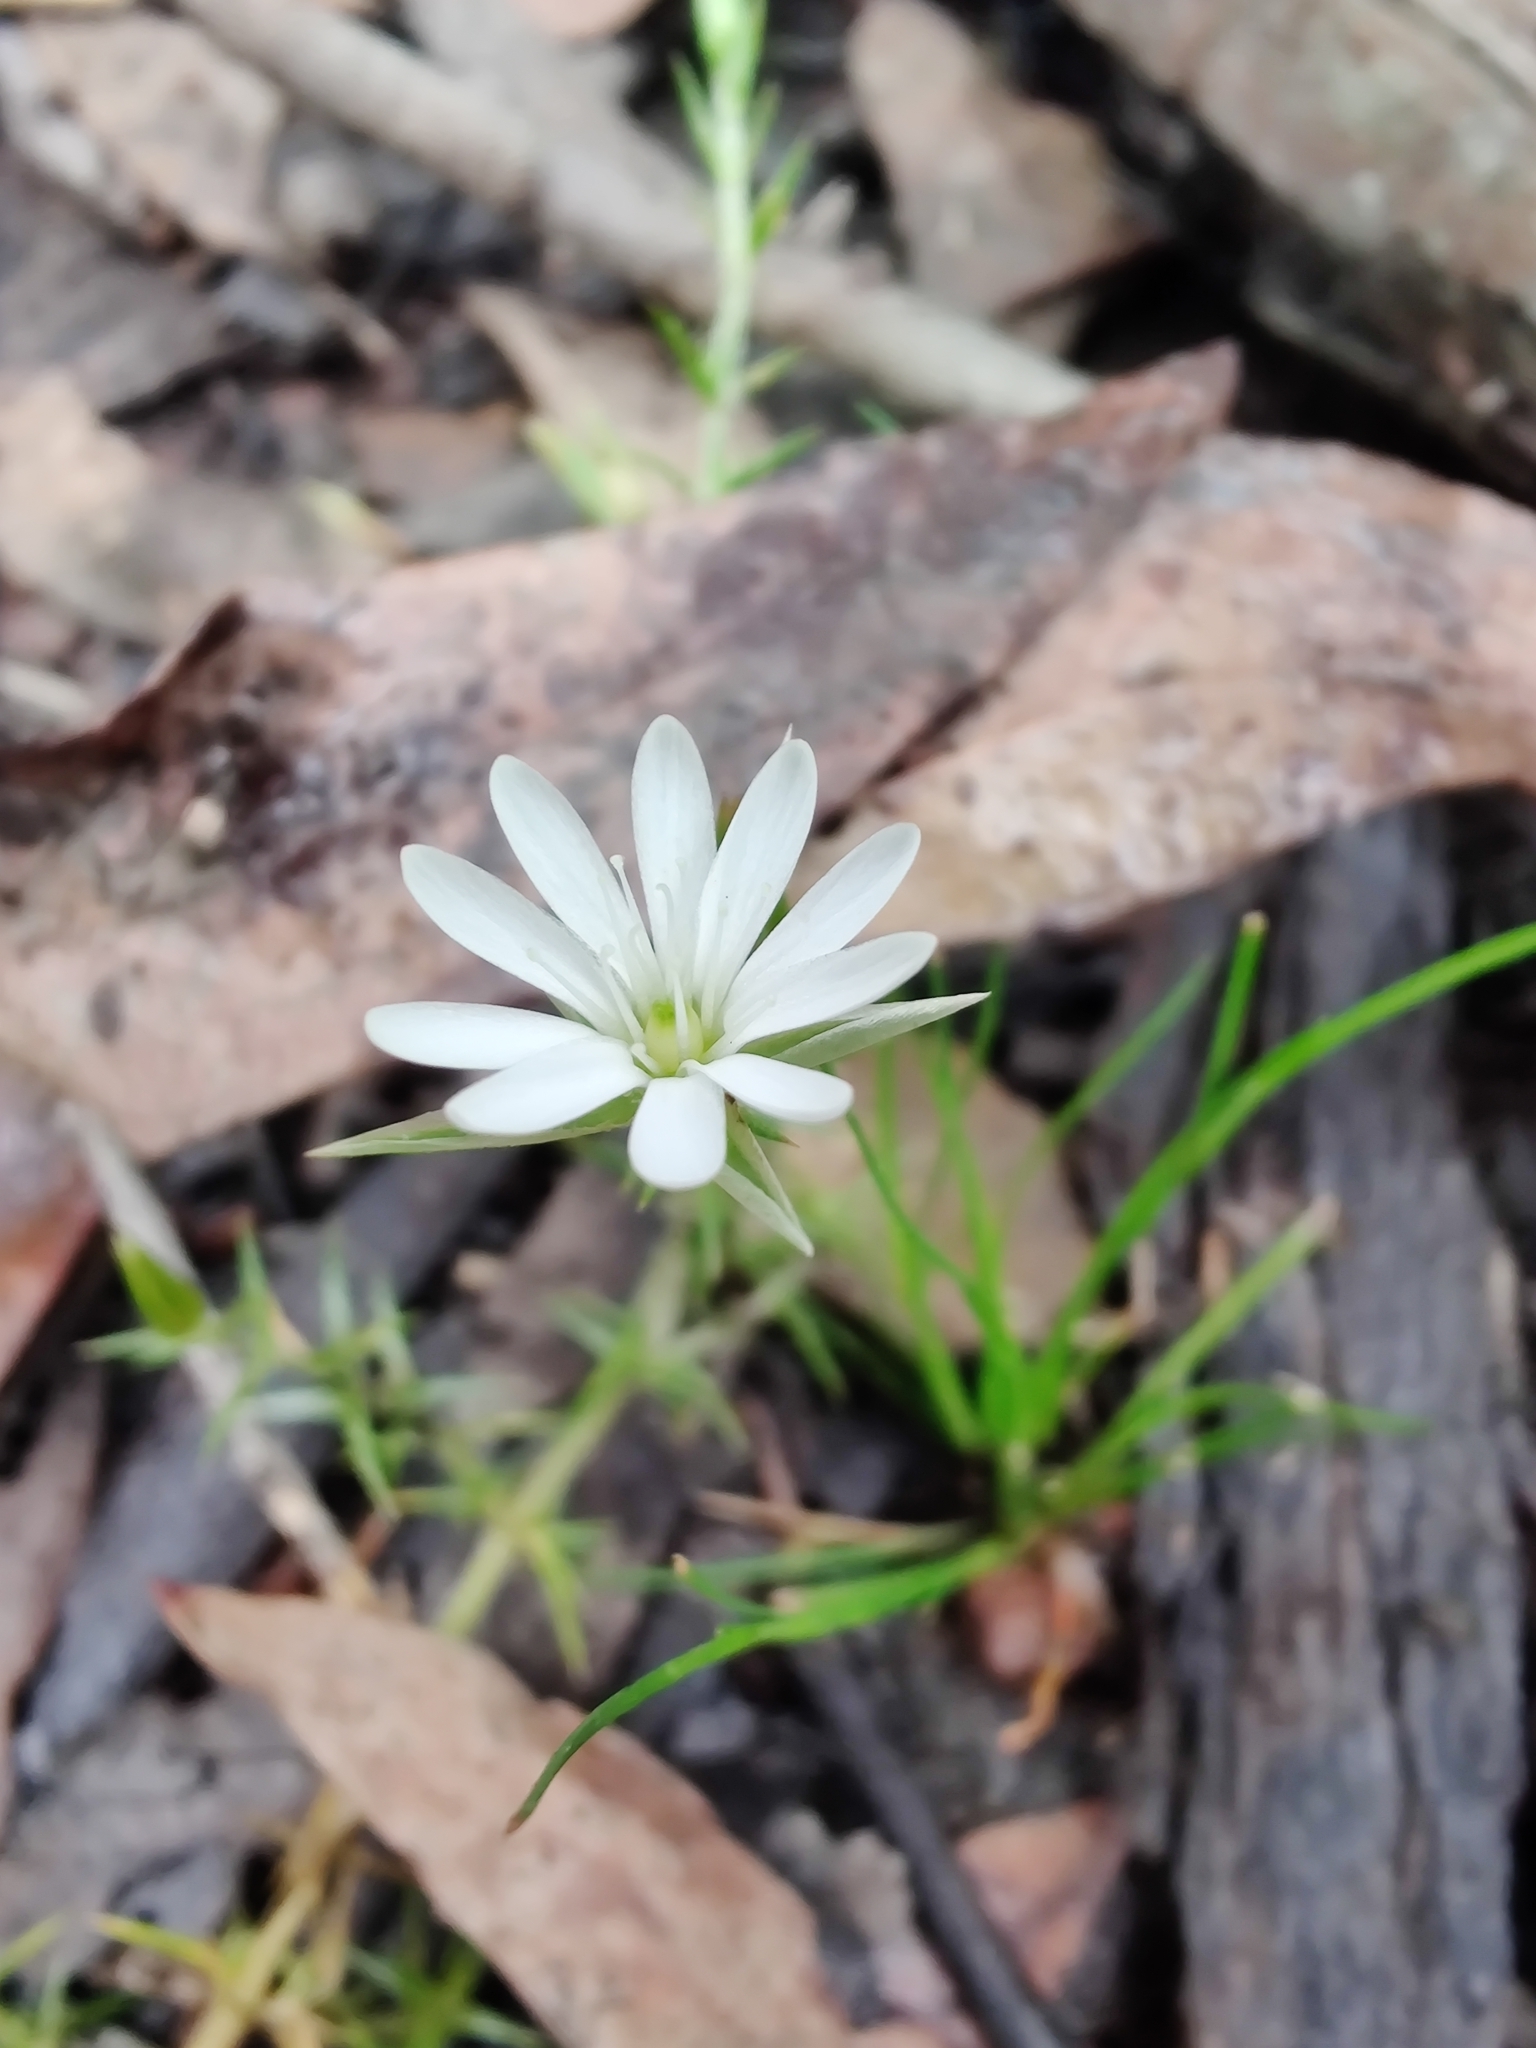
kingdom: Plantae
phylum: Tracheophyta
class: Magnoliopsida
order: Caryophyllales
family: Caryophyllaceae
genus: Stellaria
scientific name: Stellaria pungens
